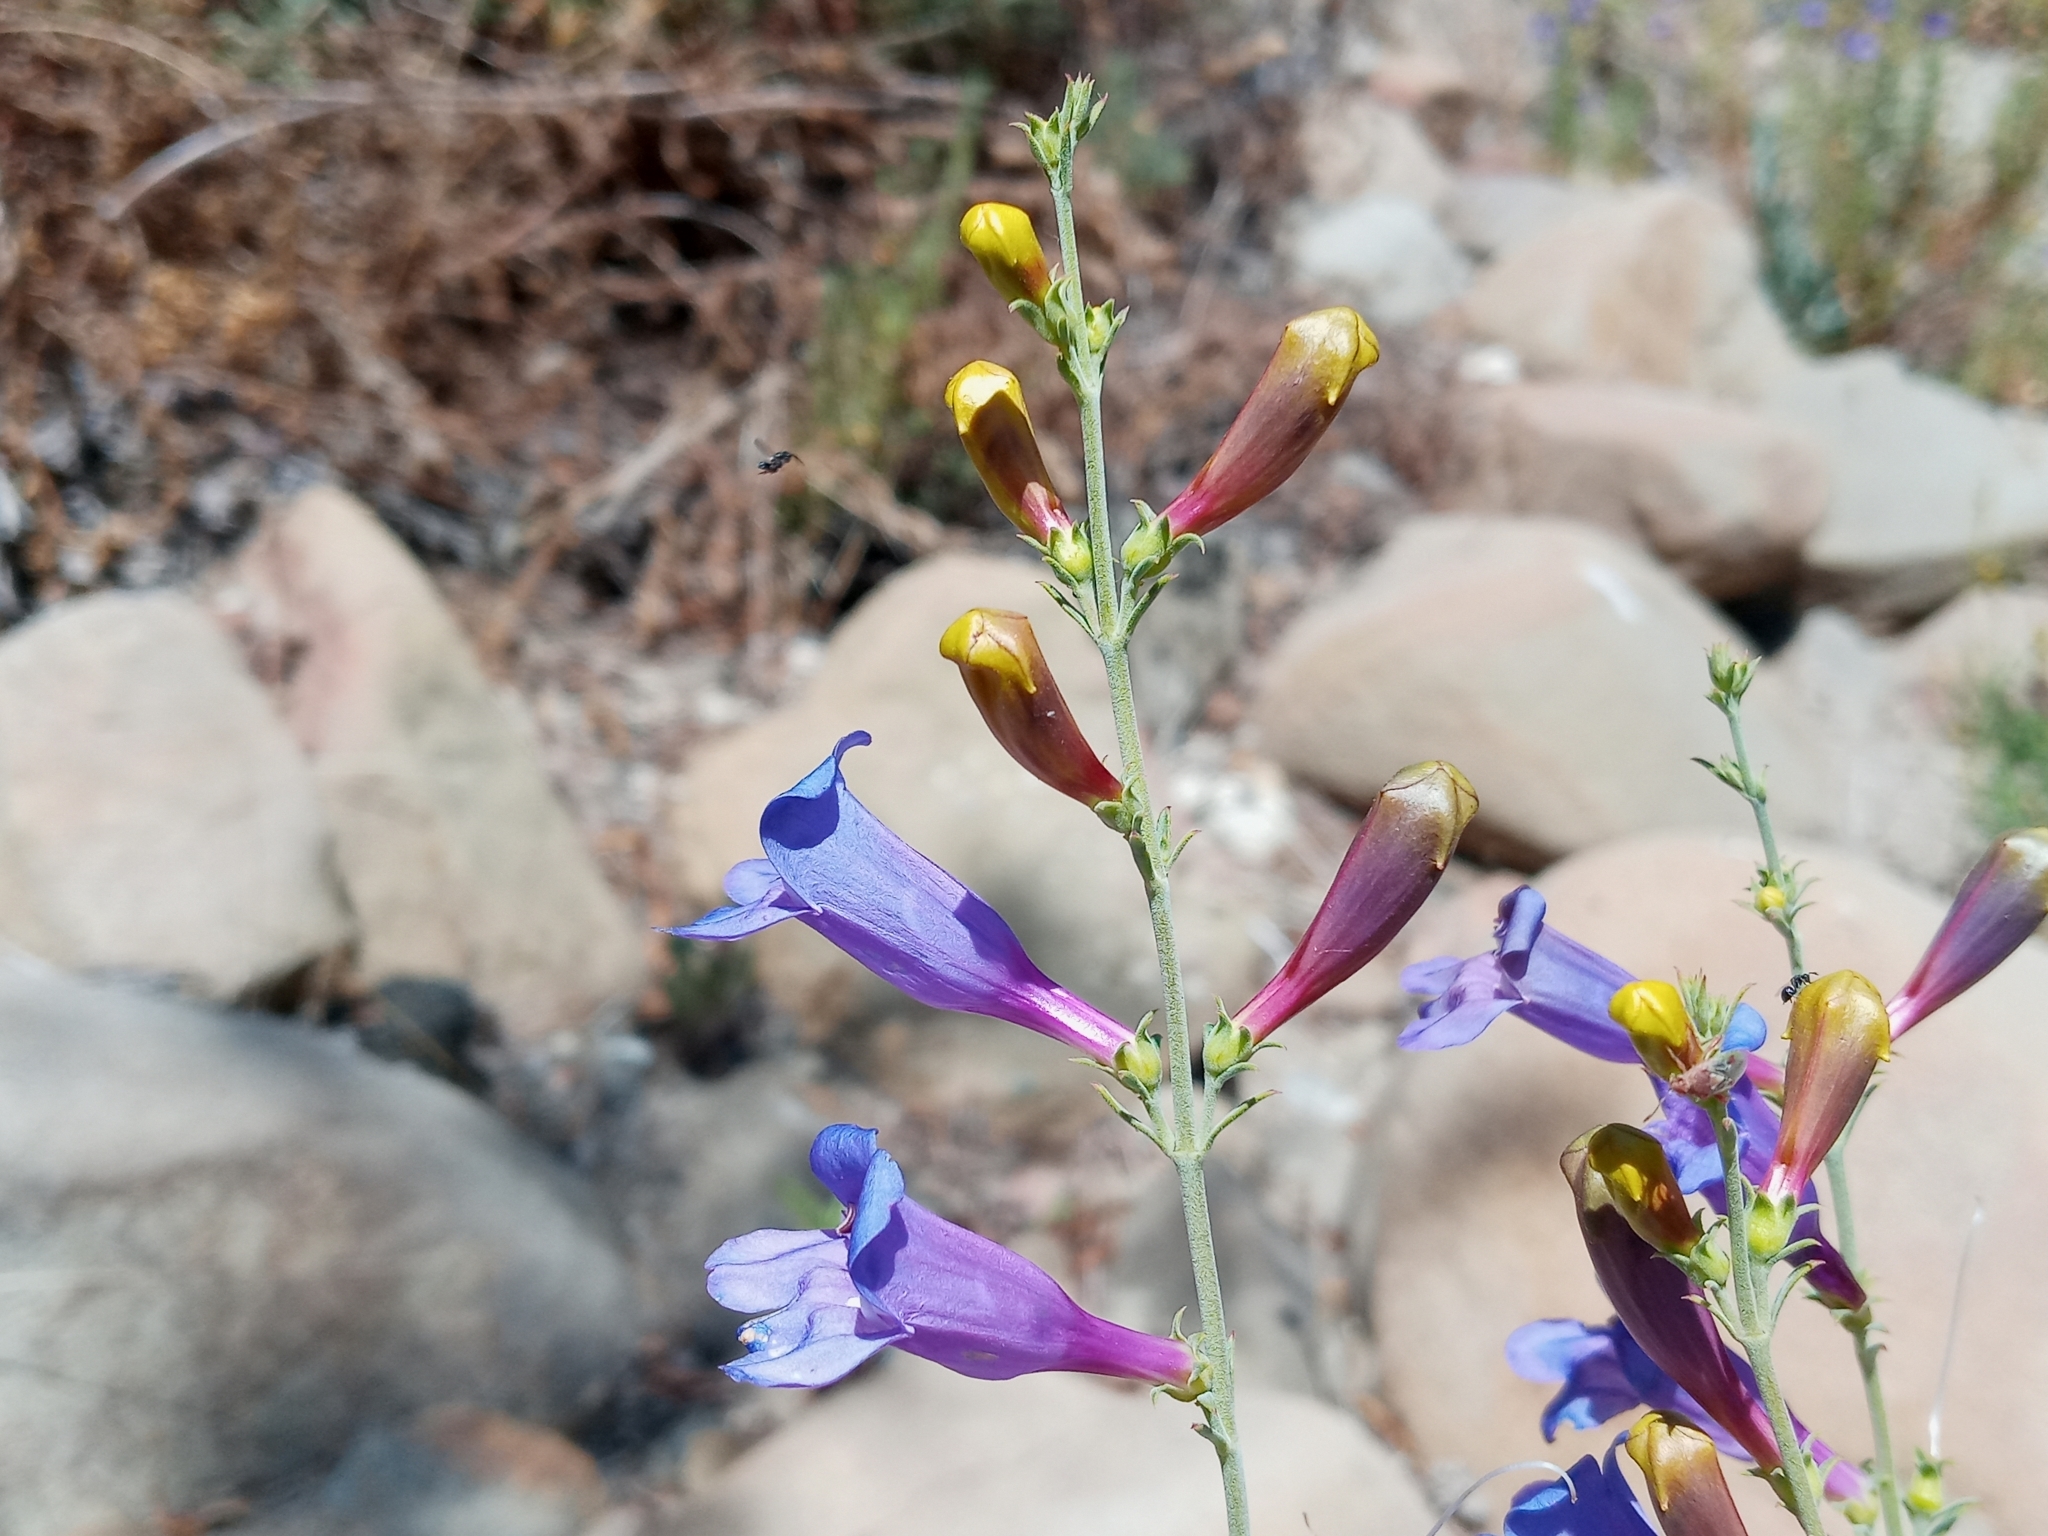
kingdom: Plantae
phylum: Tracheophyta
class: Magnoliopsida
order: Lamiales
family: Plantaginaceae
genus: Penstemon
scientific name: Penstemon heterophyllus
